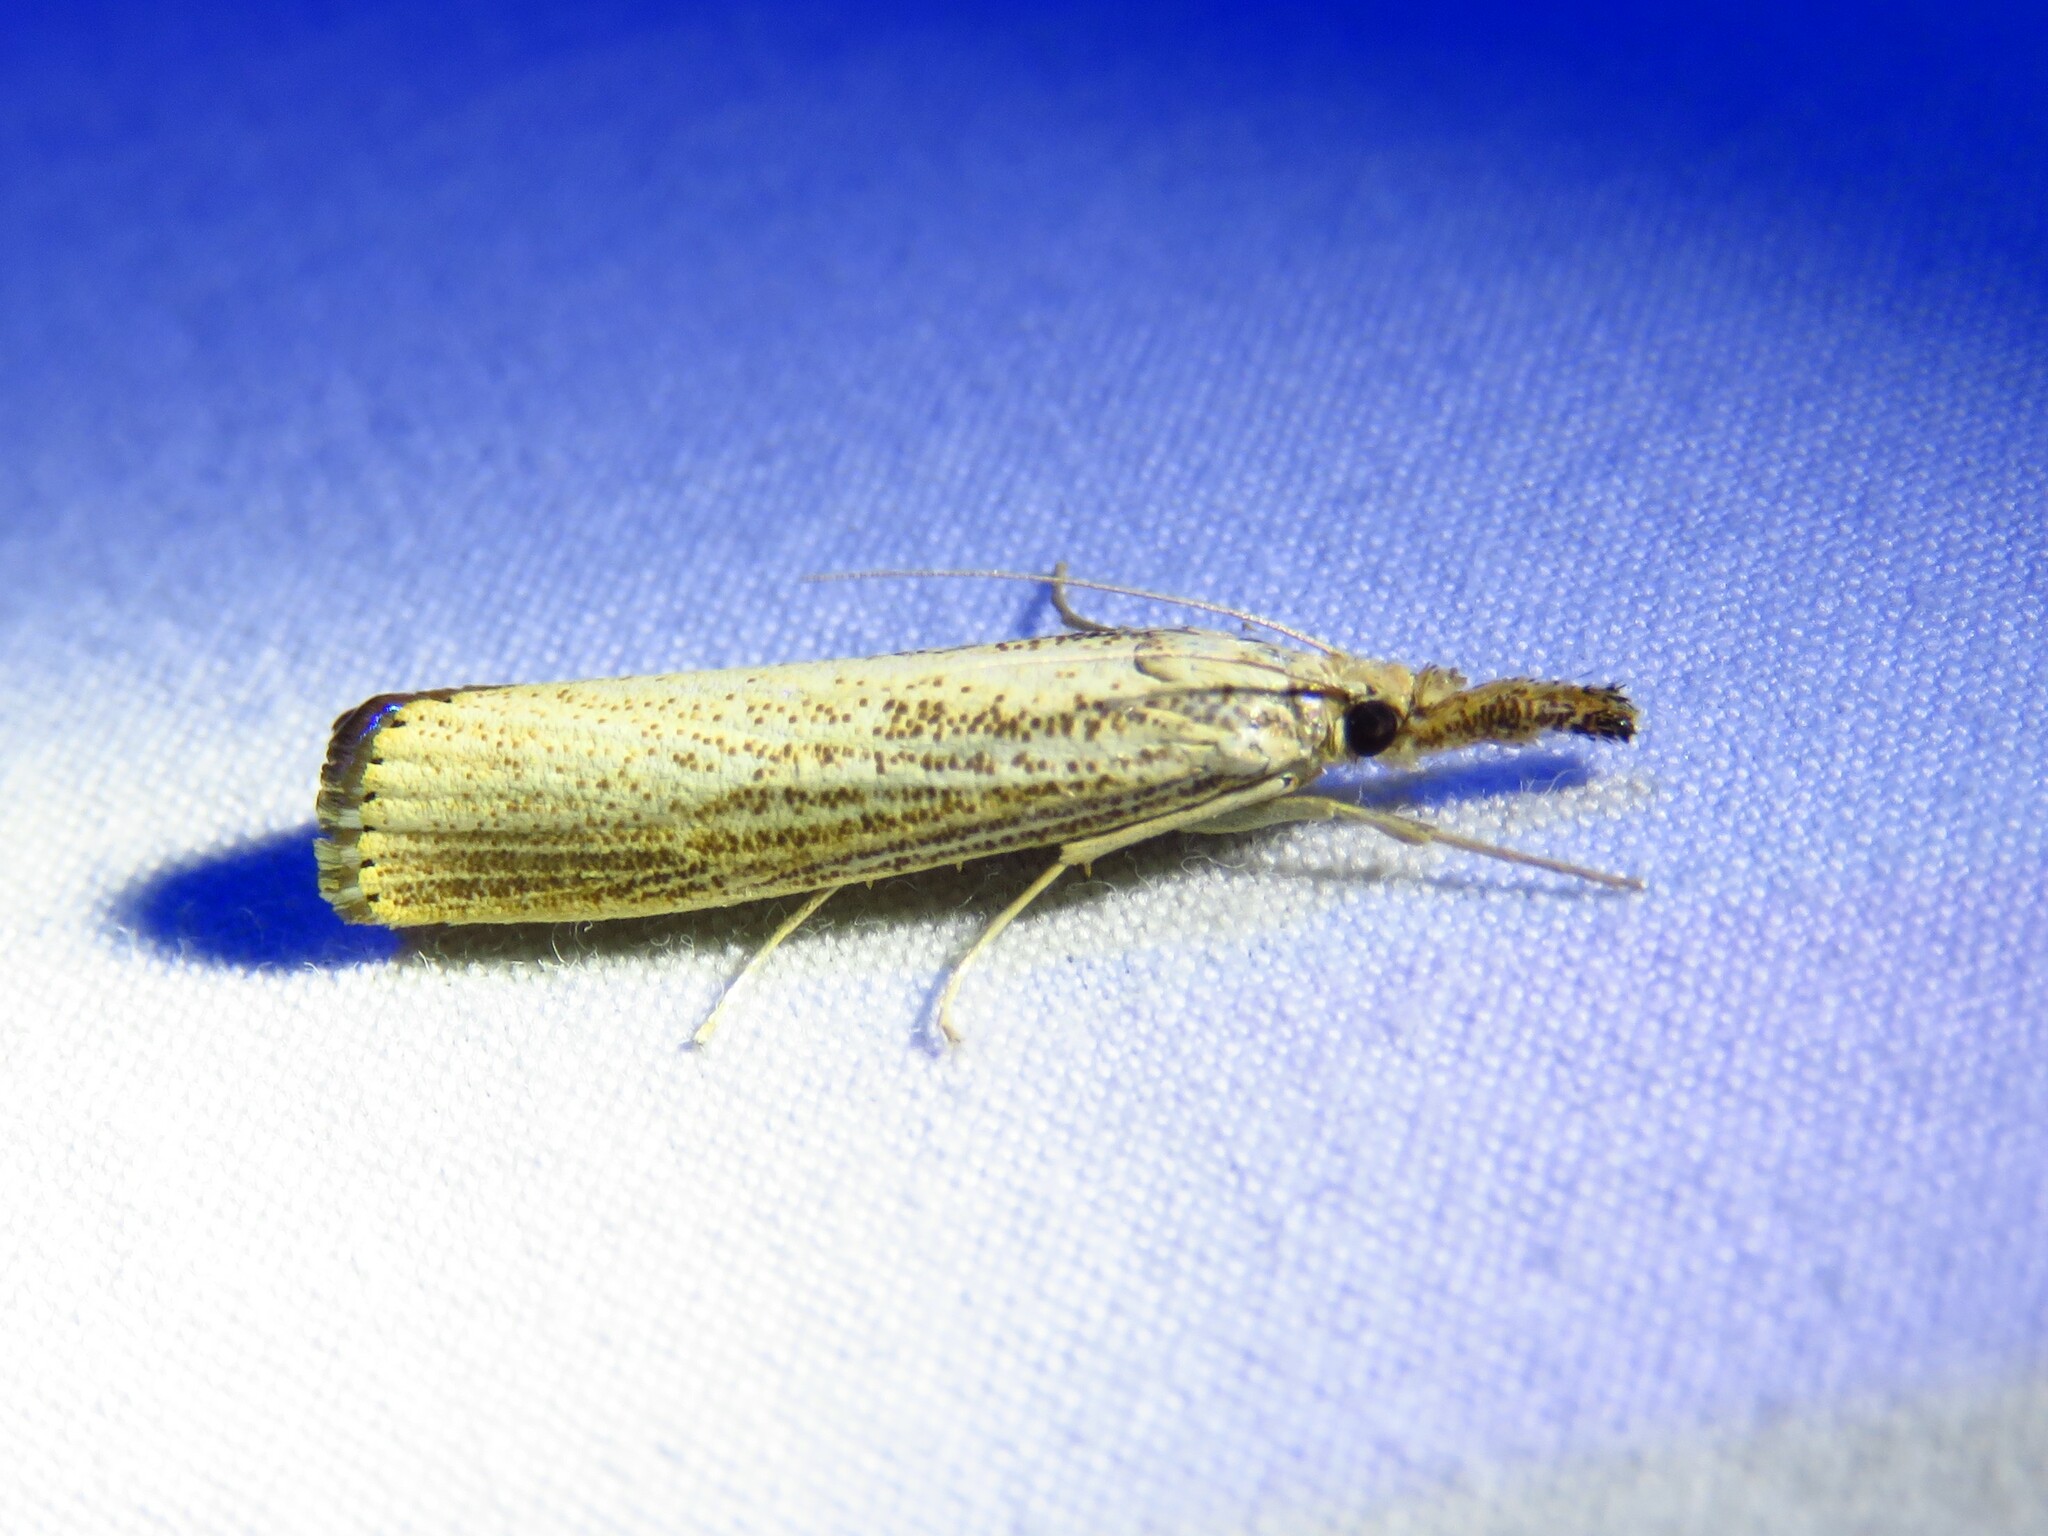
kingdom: Animalia
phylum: Arthropoda
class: Insecta
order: Lepidoptera
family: Crambidae
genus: Agriphila
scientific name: Agriphila vulgivagellus
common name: Vagabond crambus moth
